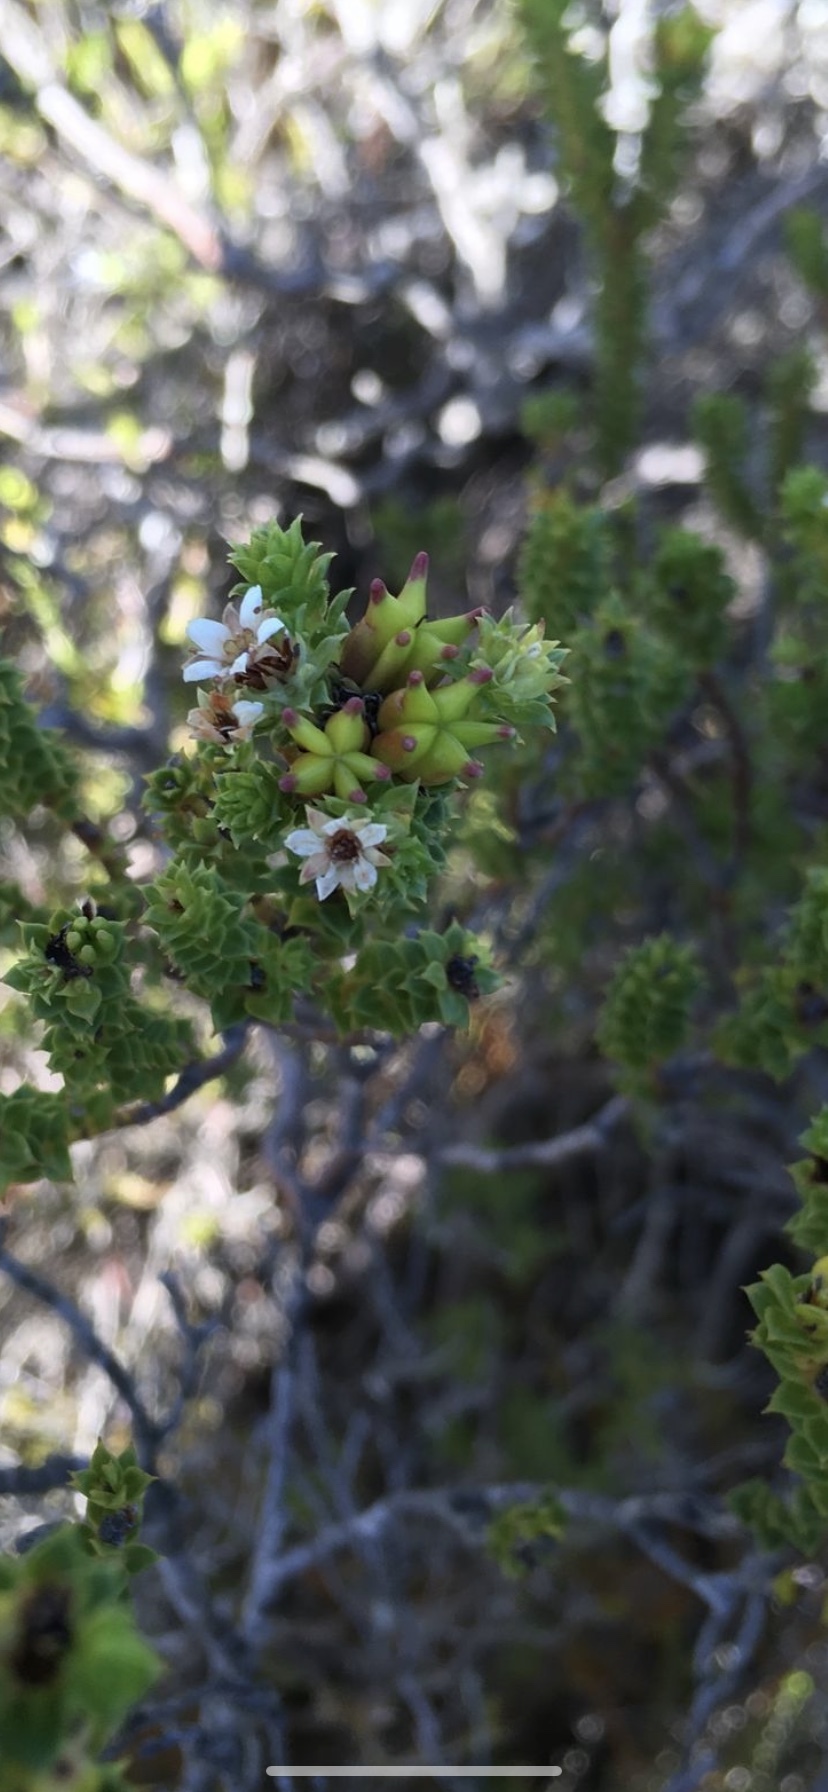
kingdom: Plantae
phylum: Tracheophyta
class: Magnoliopsida
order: Sapindales
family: Rutaceae
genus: Diosma
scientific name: Diosma echinulata
